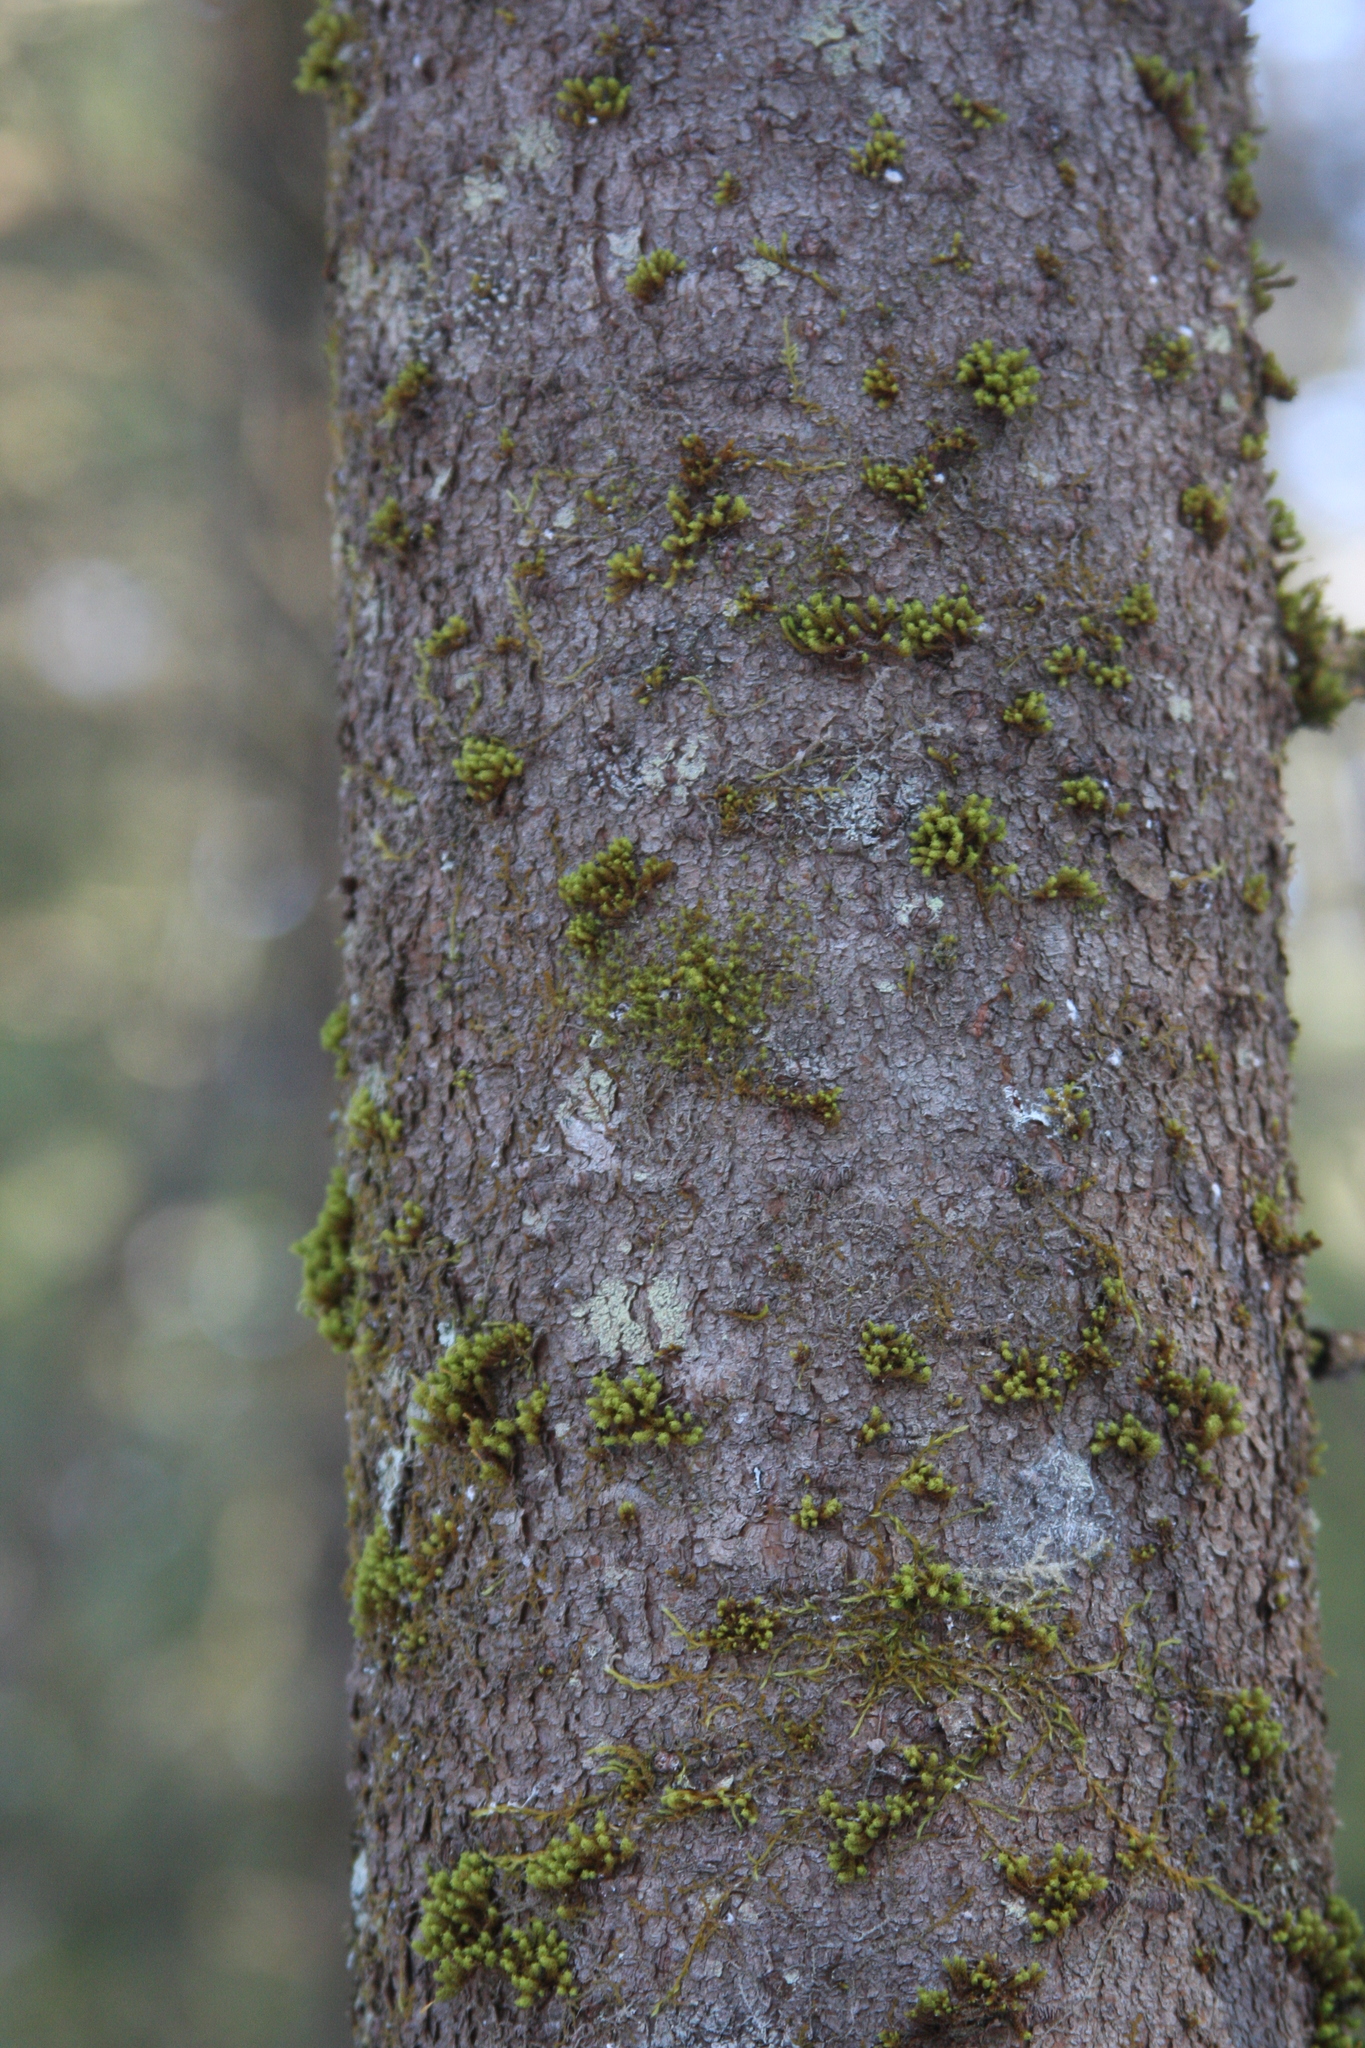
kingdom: Plantae
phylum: Bryophyta
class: Bryopsida
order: Orthotrichales
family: Orthotrichaceae
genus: Ulota
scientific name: Ulota crispa
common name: Crisped pincushion moss
